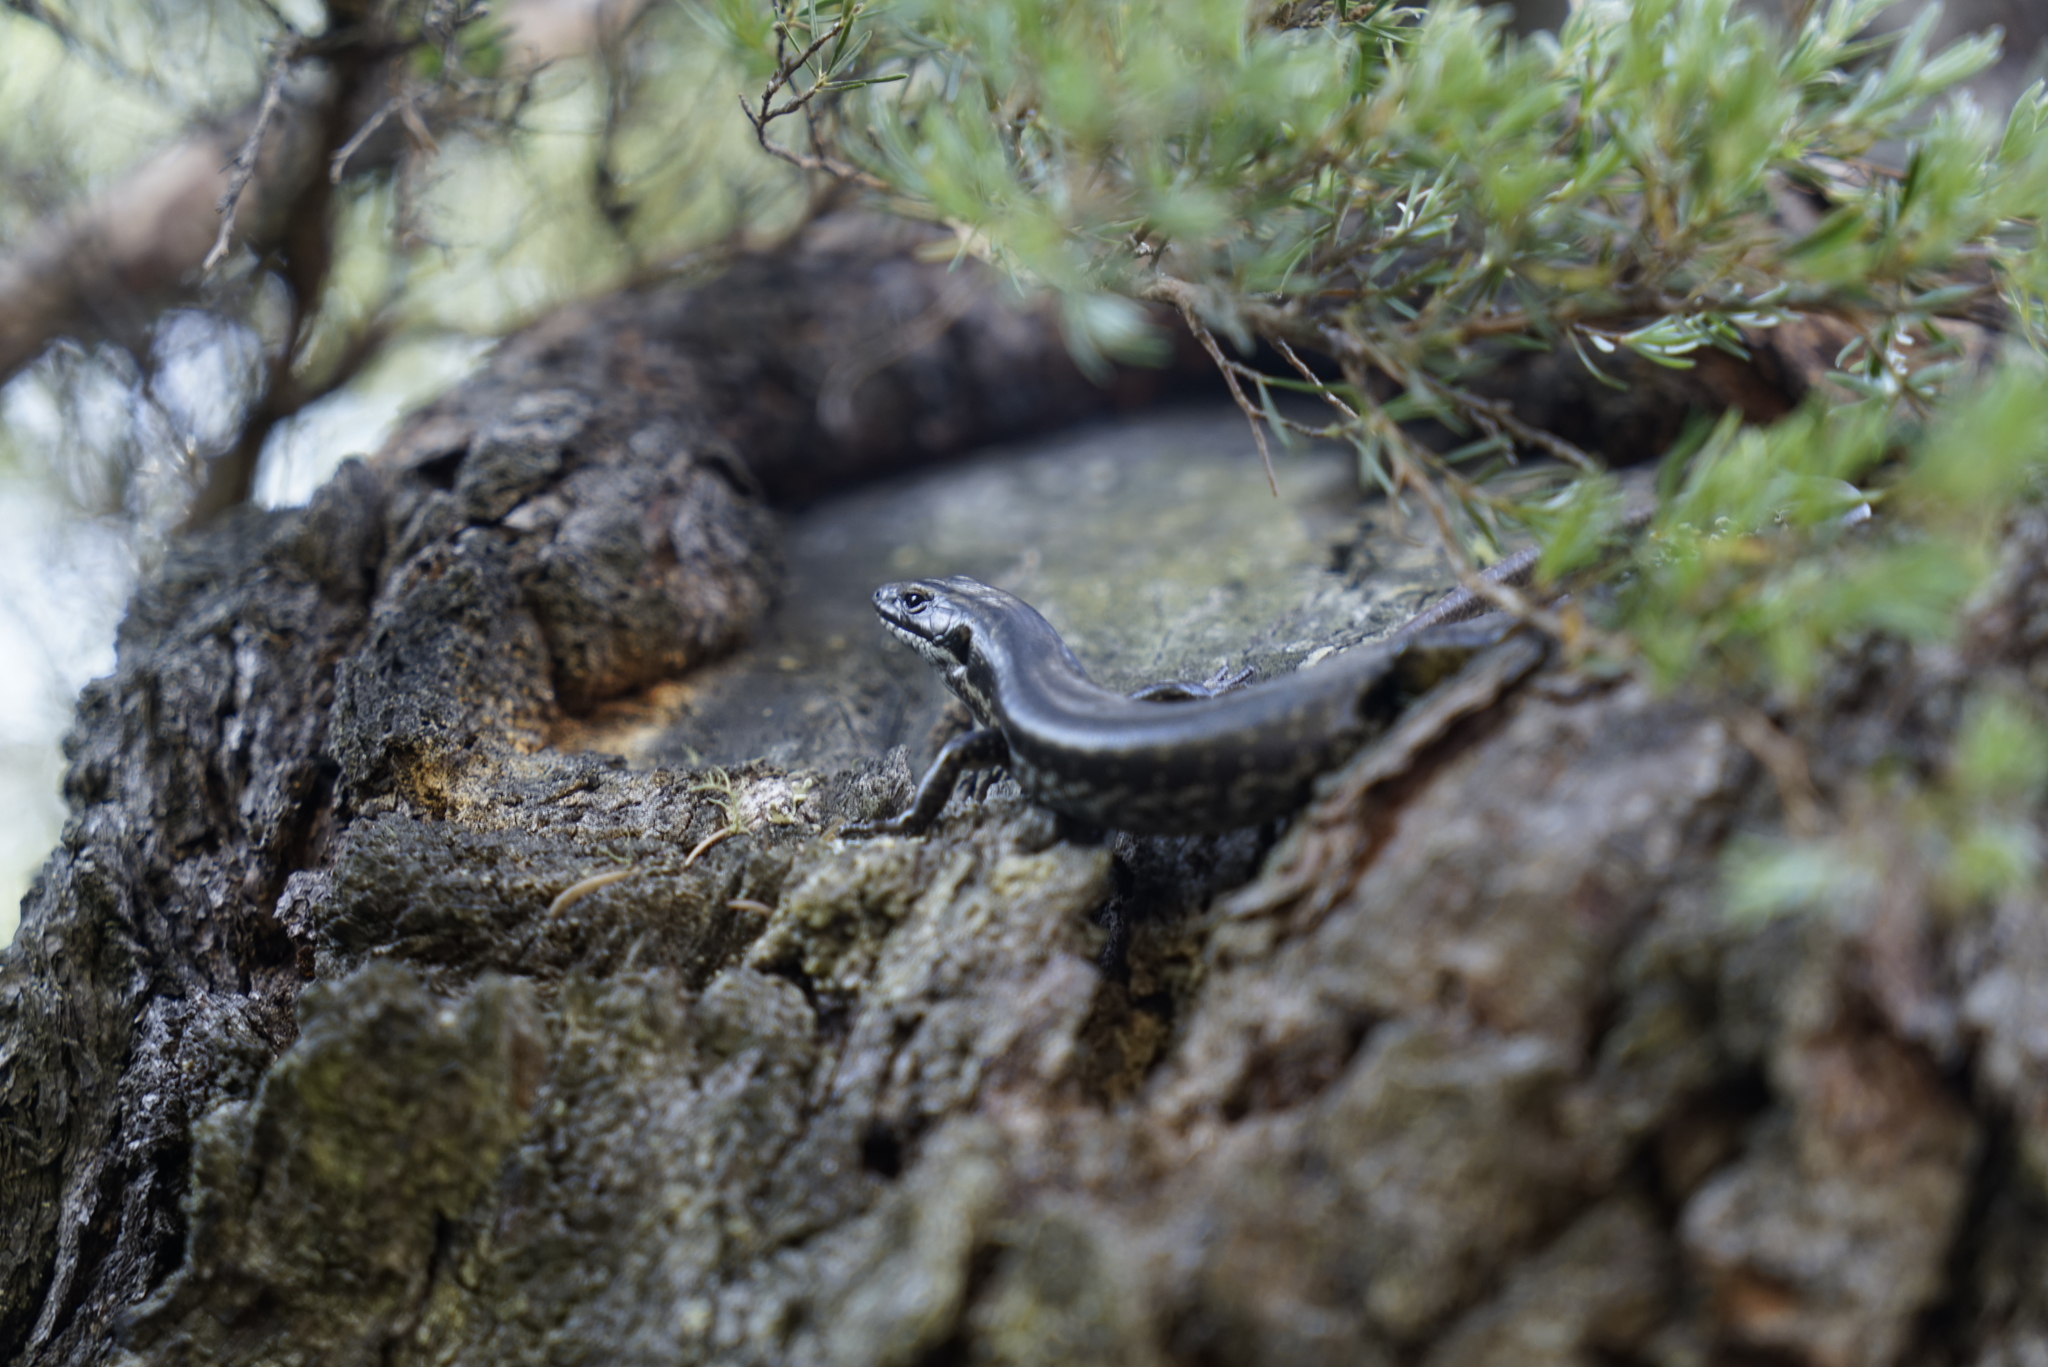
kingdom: Animalia
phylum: Chordata
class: Squamata
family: Scincidae
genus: Eulamprus
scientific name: Eulamprus heatwolei
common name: Warm-temperate water-skink
